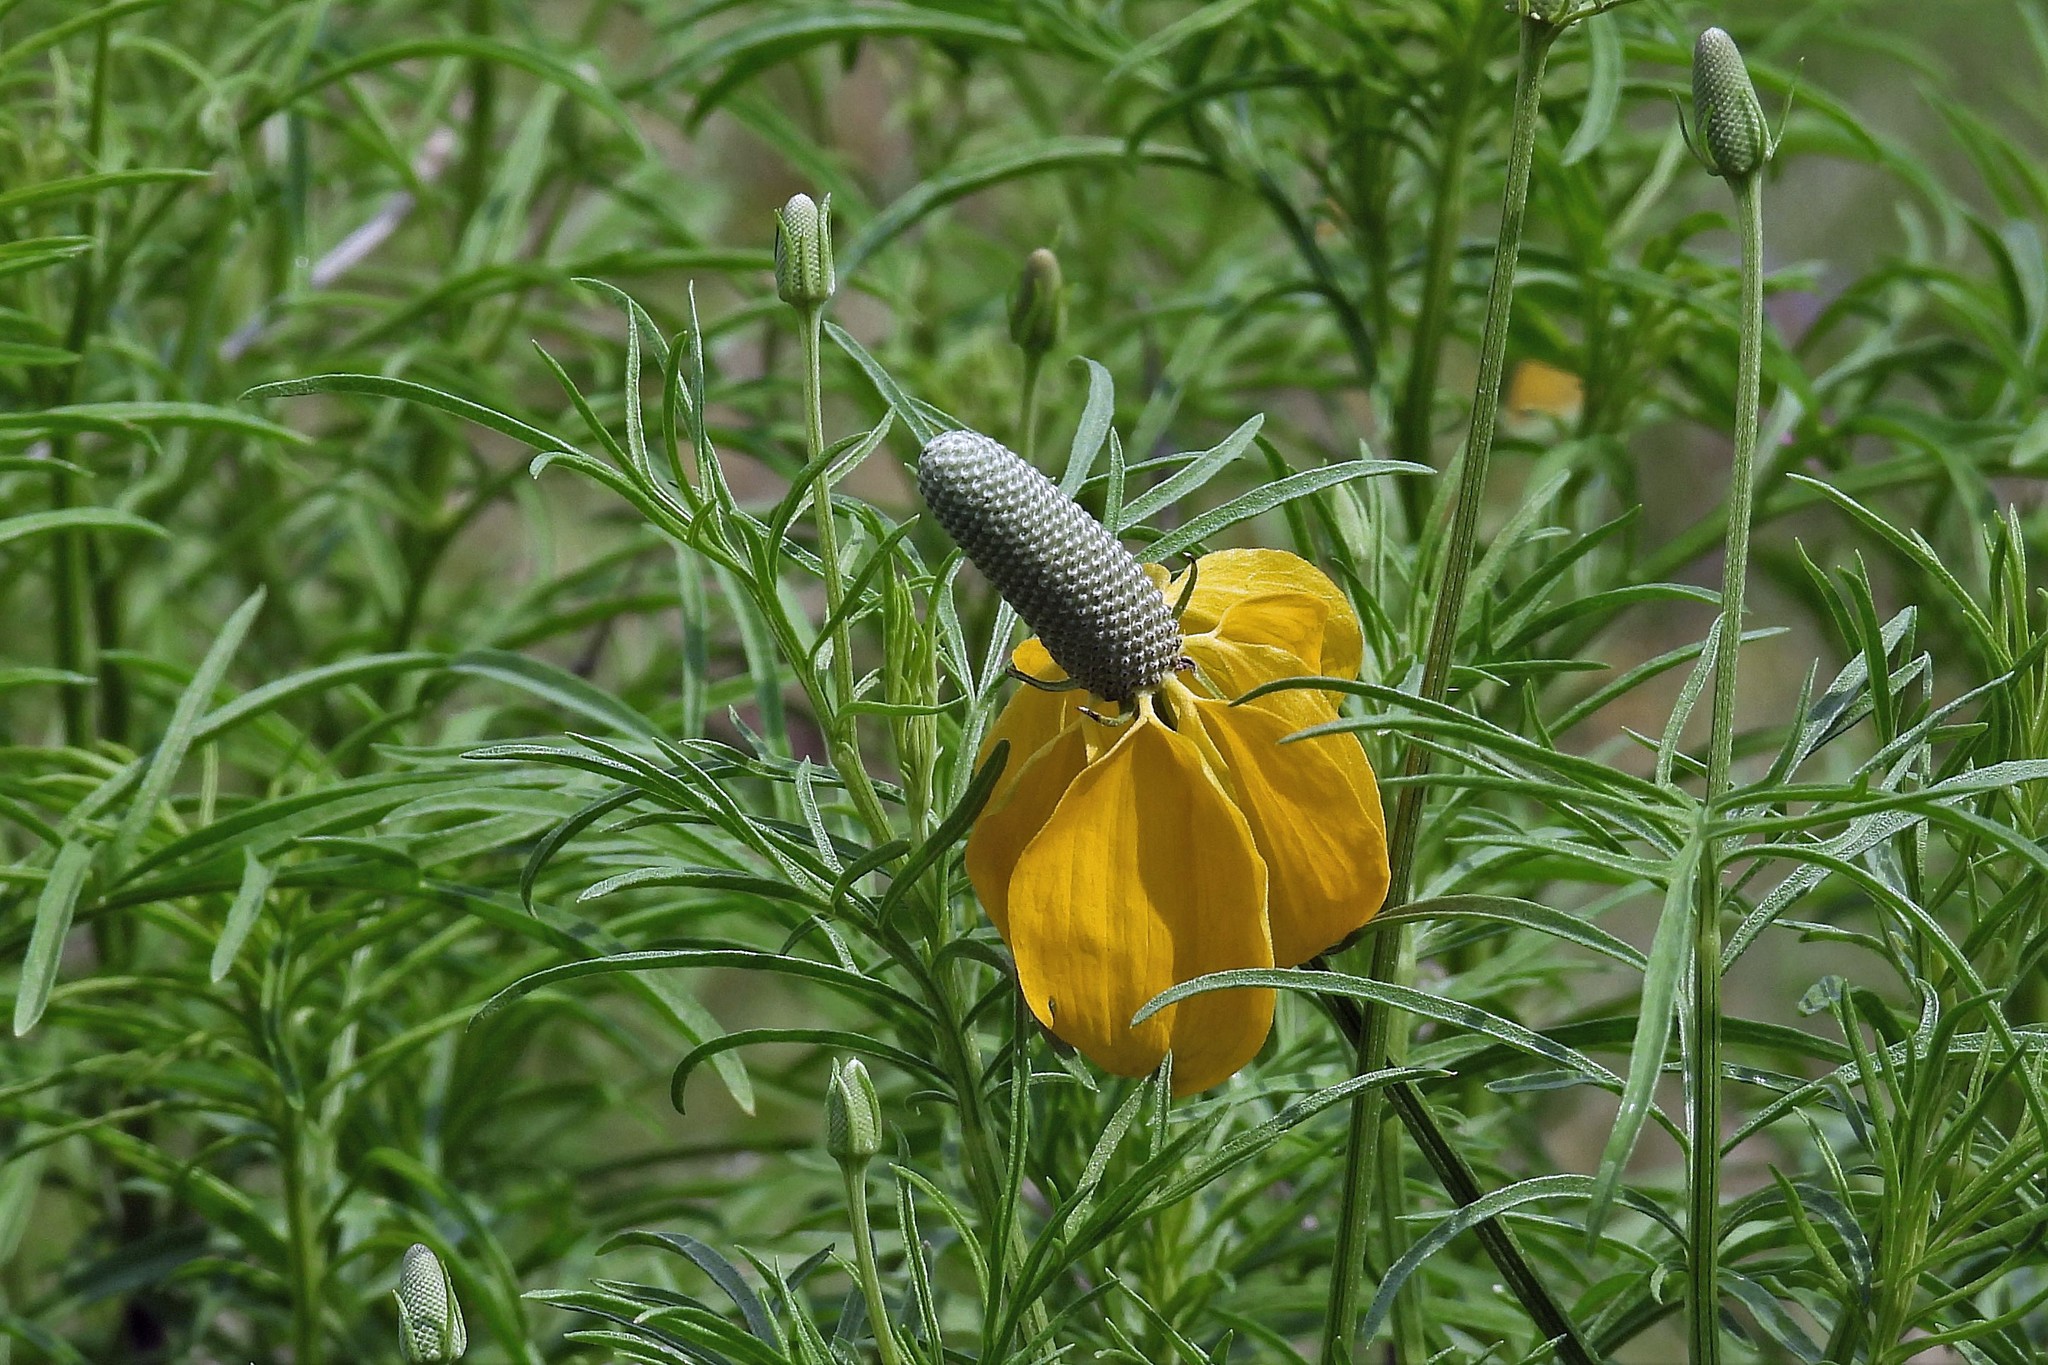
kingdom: Plantae
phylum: Tracheophyta
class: Magnoliopsida
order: Asterales
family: Asteraceae
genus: Ratibida
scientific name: Ratibida columnifera
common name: Prairie coneflower
